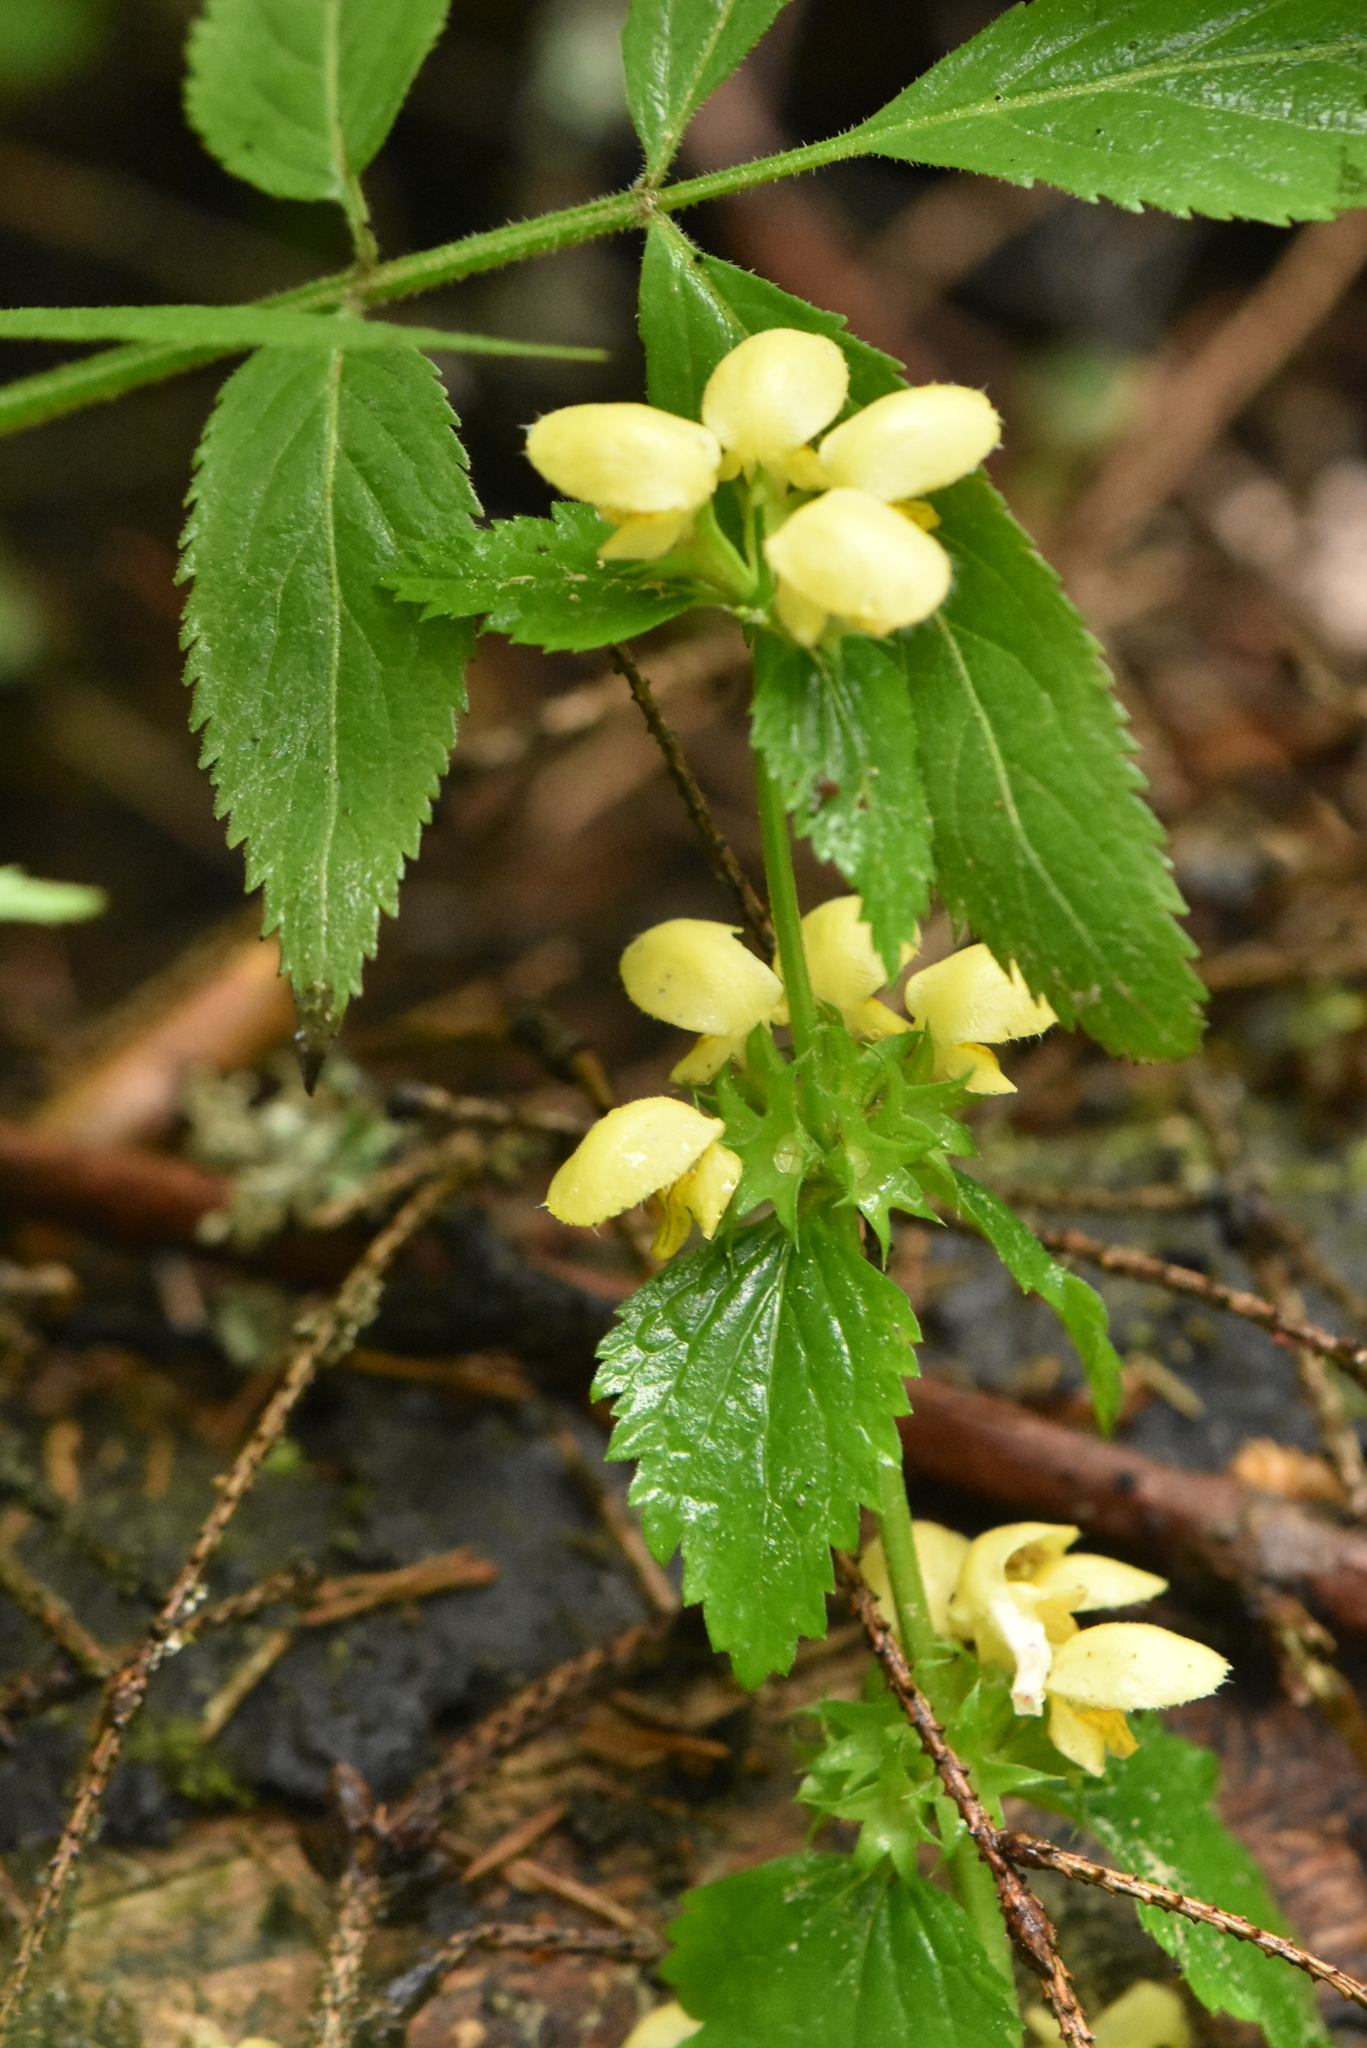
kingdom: Plantae
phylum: Tracheophyta
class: Magnoliopsida
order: Lamiales
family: Lamiaceae
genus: Lamium
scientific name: Lamium galeobdolon
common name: Yellow archangel
